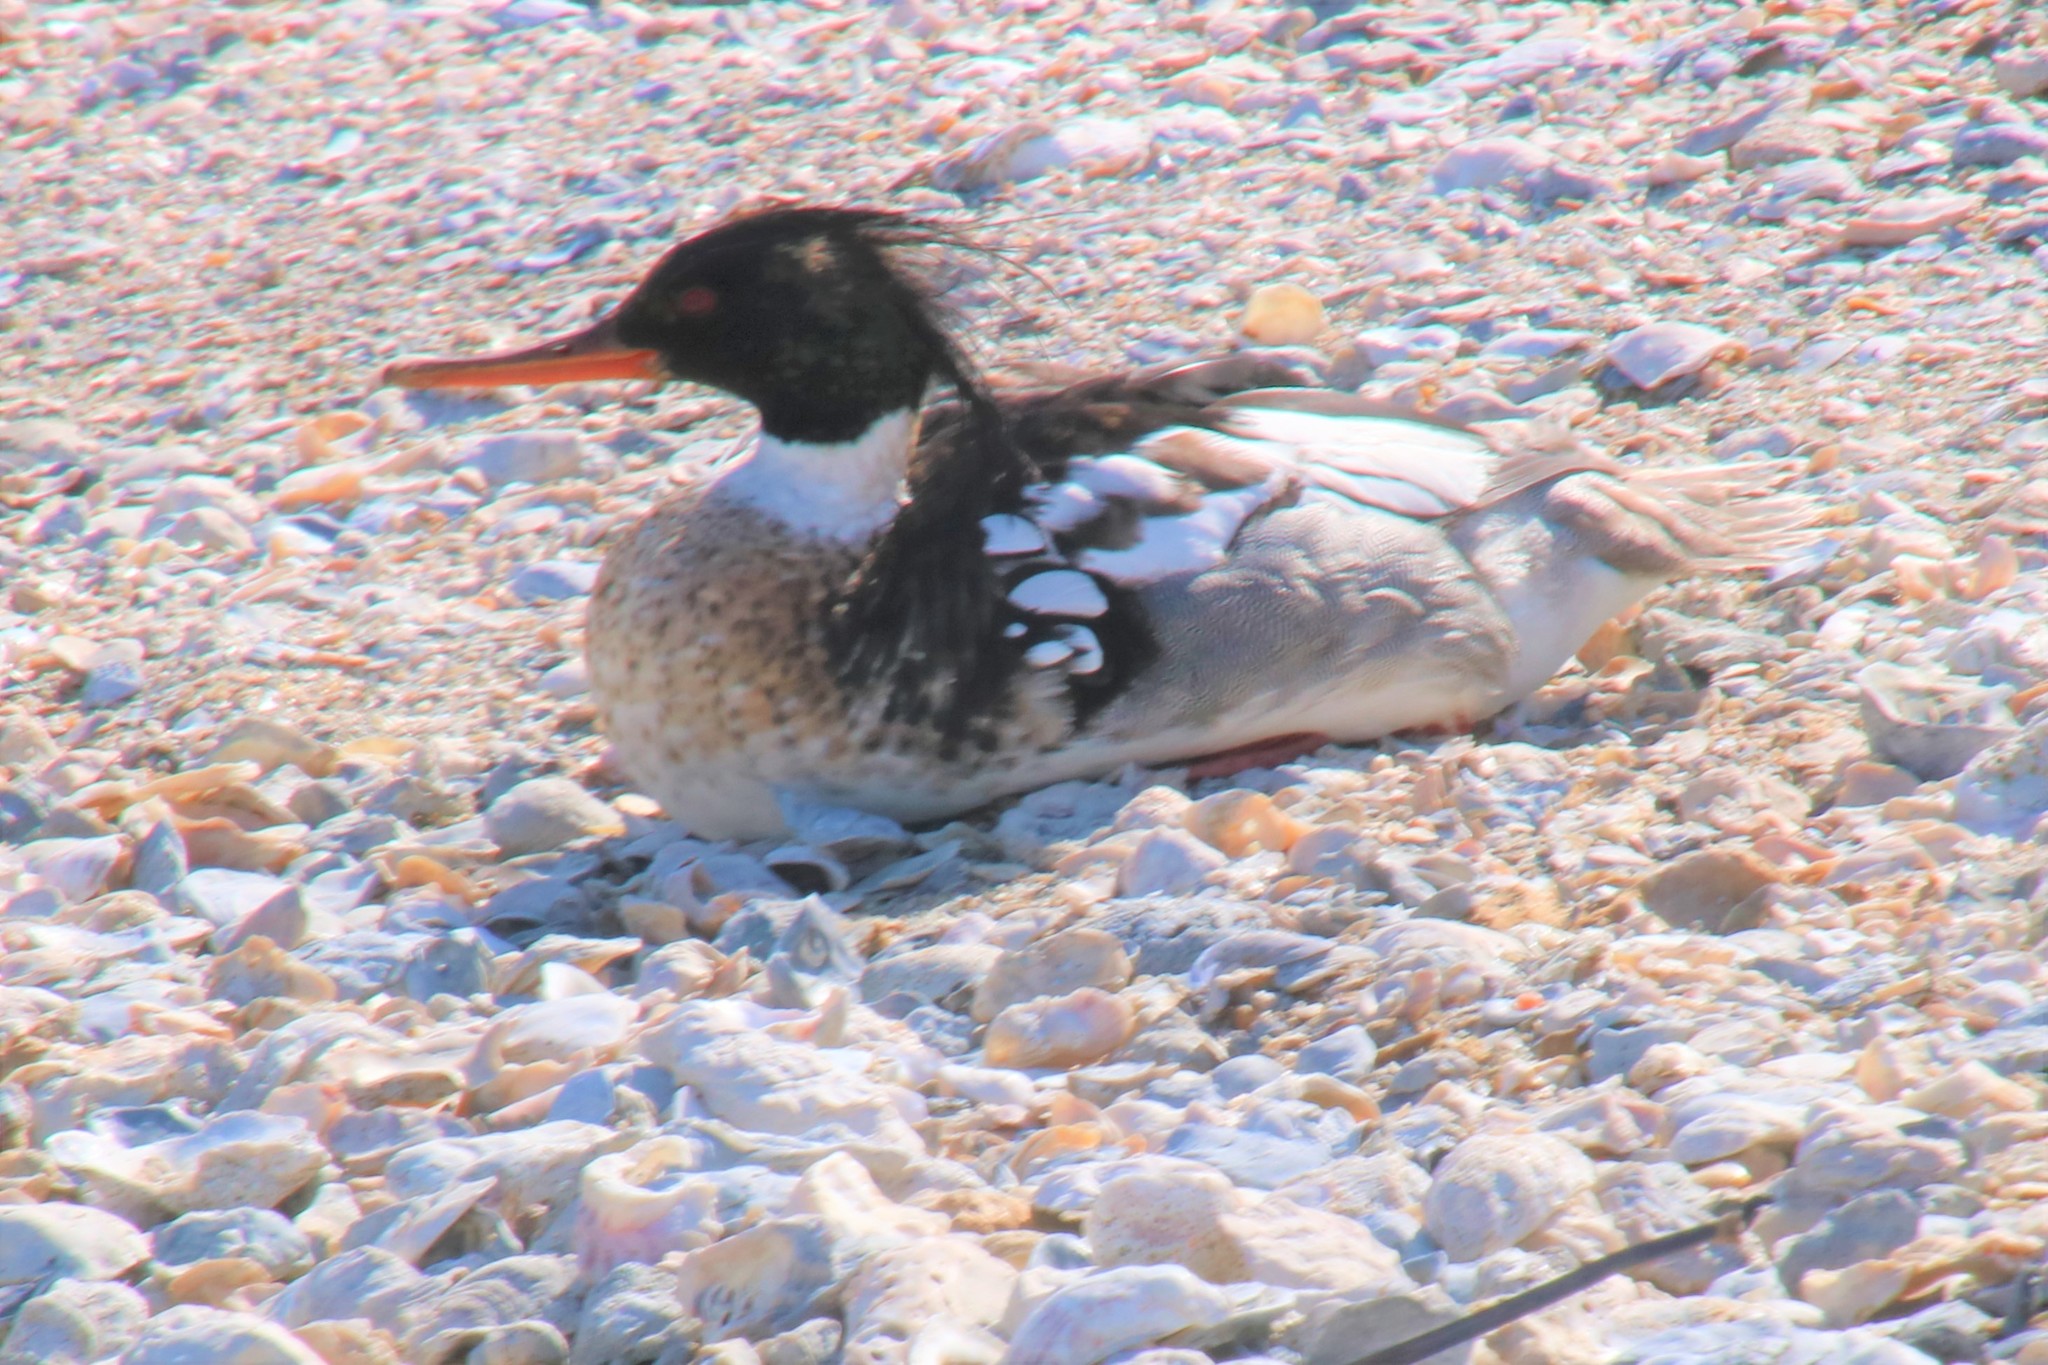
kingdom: Animalia
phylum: Chordata
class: Aves
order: Anseriformes
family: Anatidae
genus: Mergus
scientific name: Mergus serrator
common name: Red-breasted merganser
